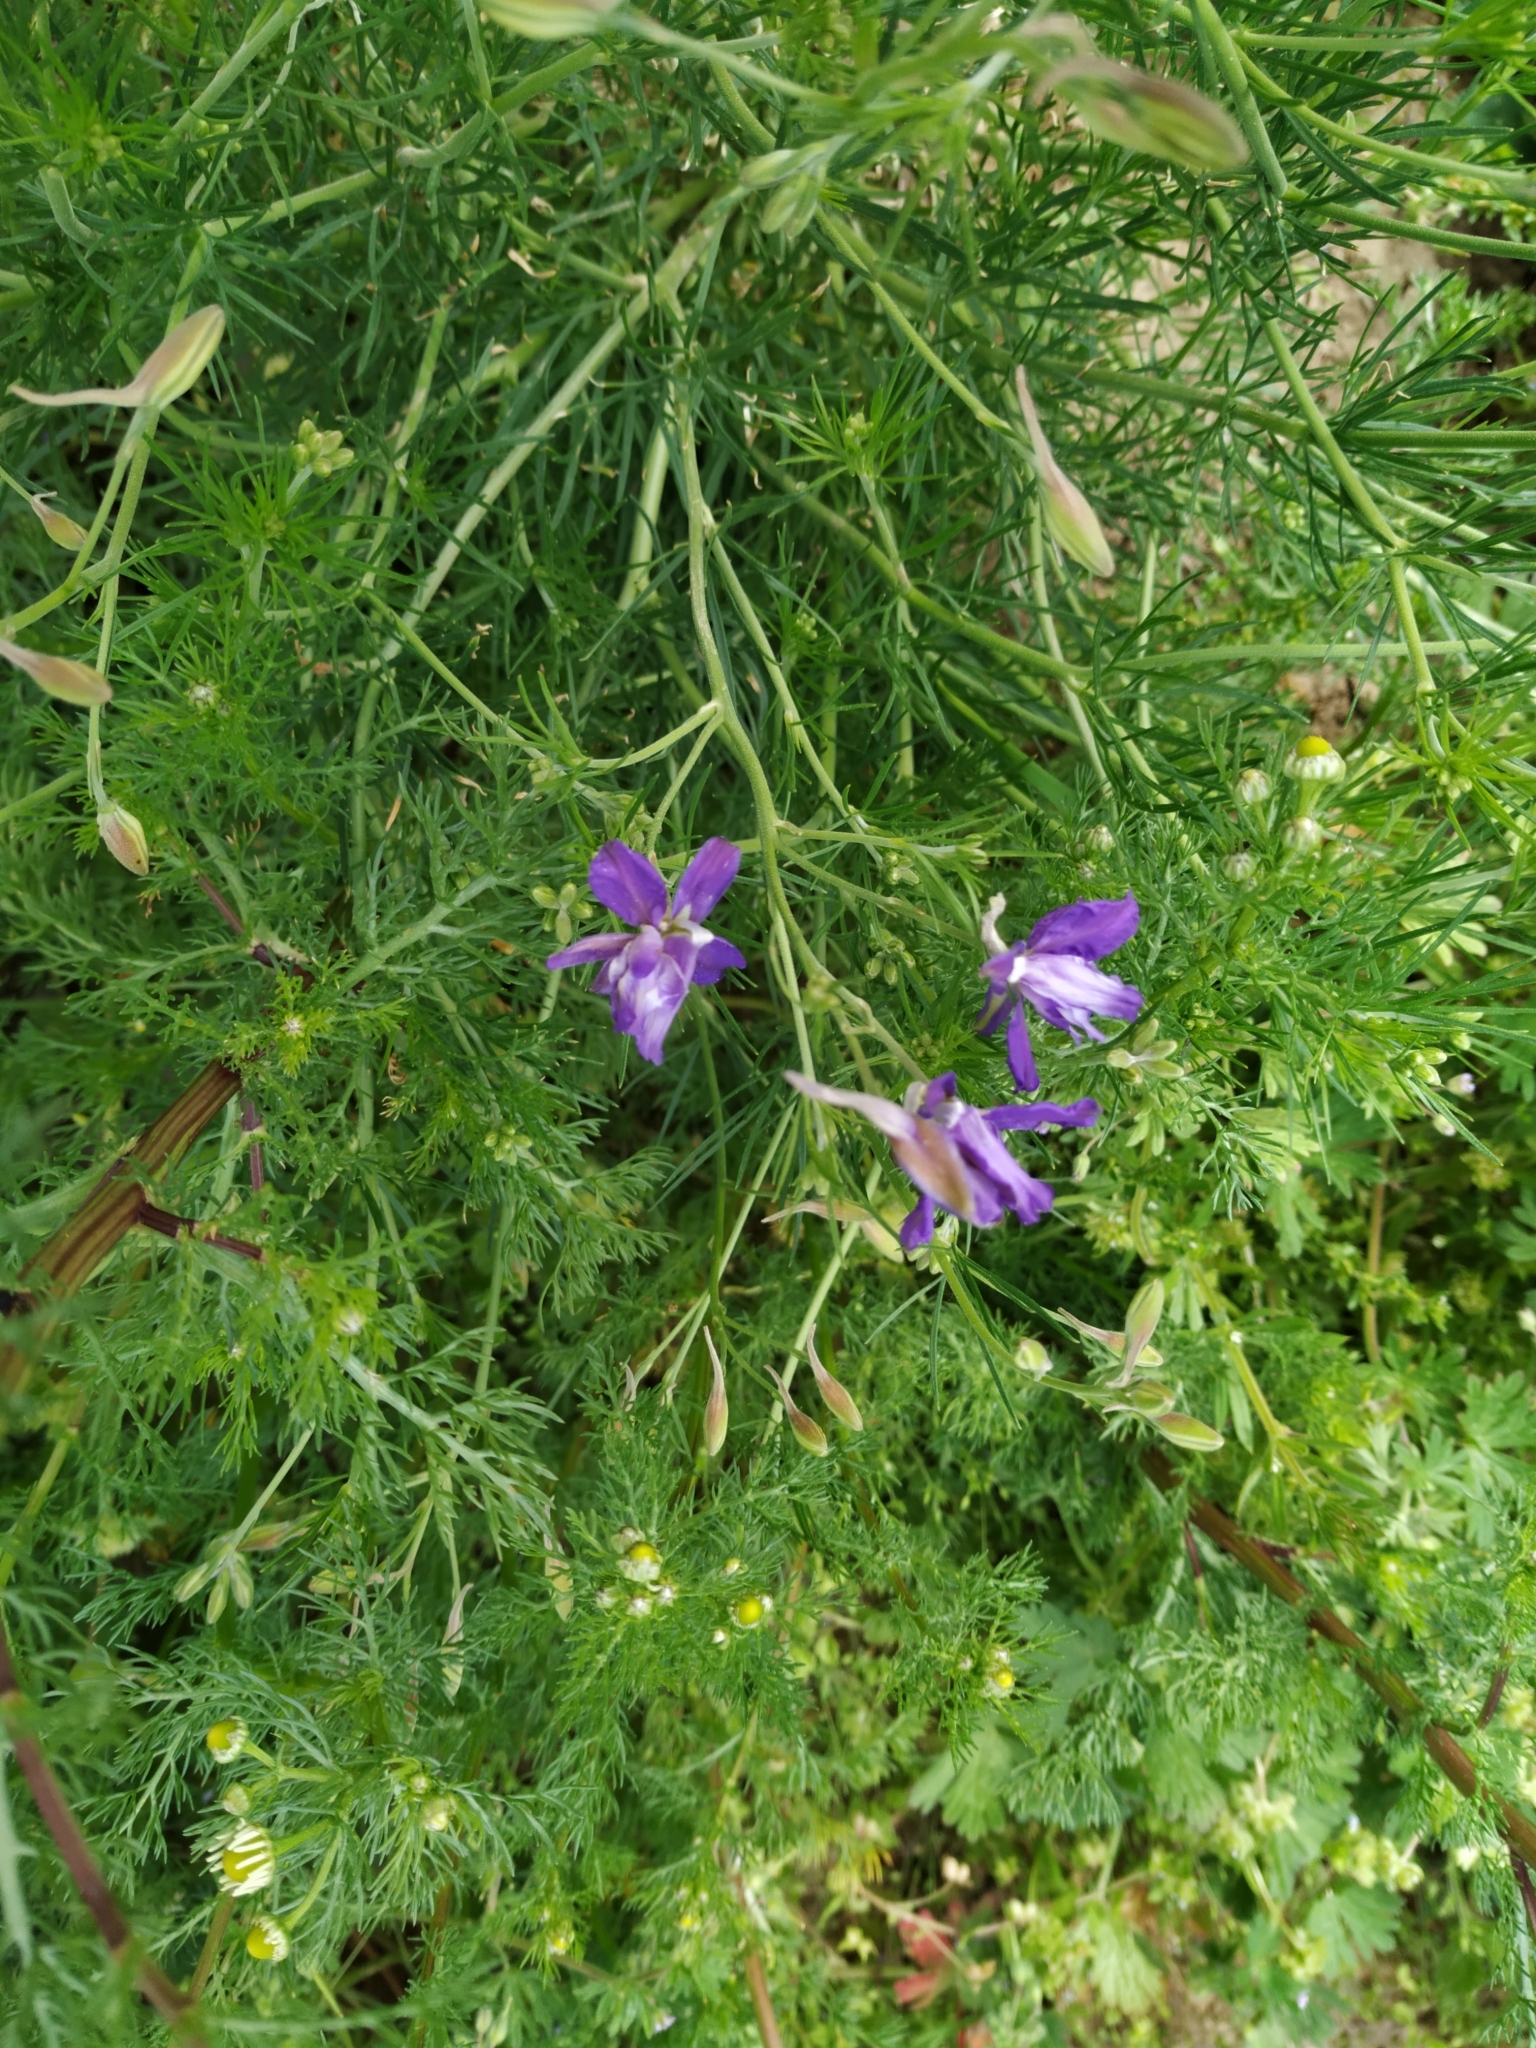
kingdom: Plantae
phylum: Tracheophyta
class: Magnoliopsida
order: Ranunculales
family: Ranunculaceae
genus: Delphinium
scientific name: Delphinium consolida
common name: Branching larkspur
